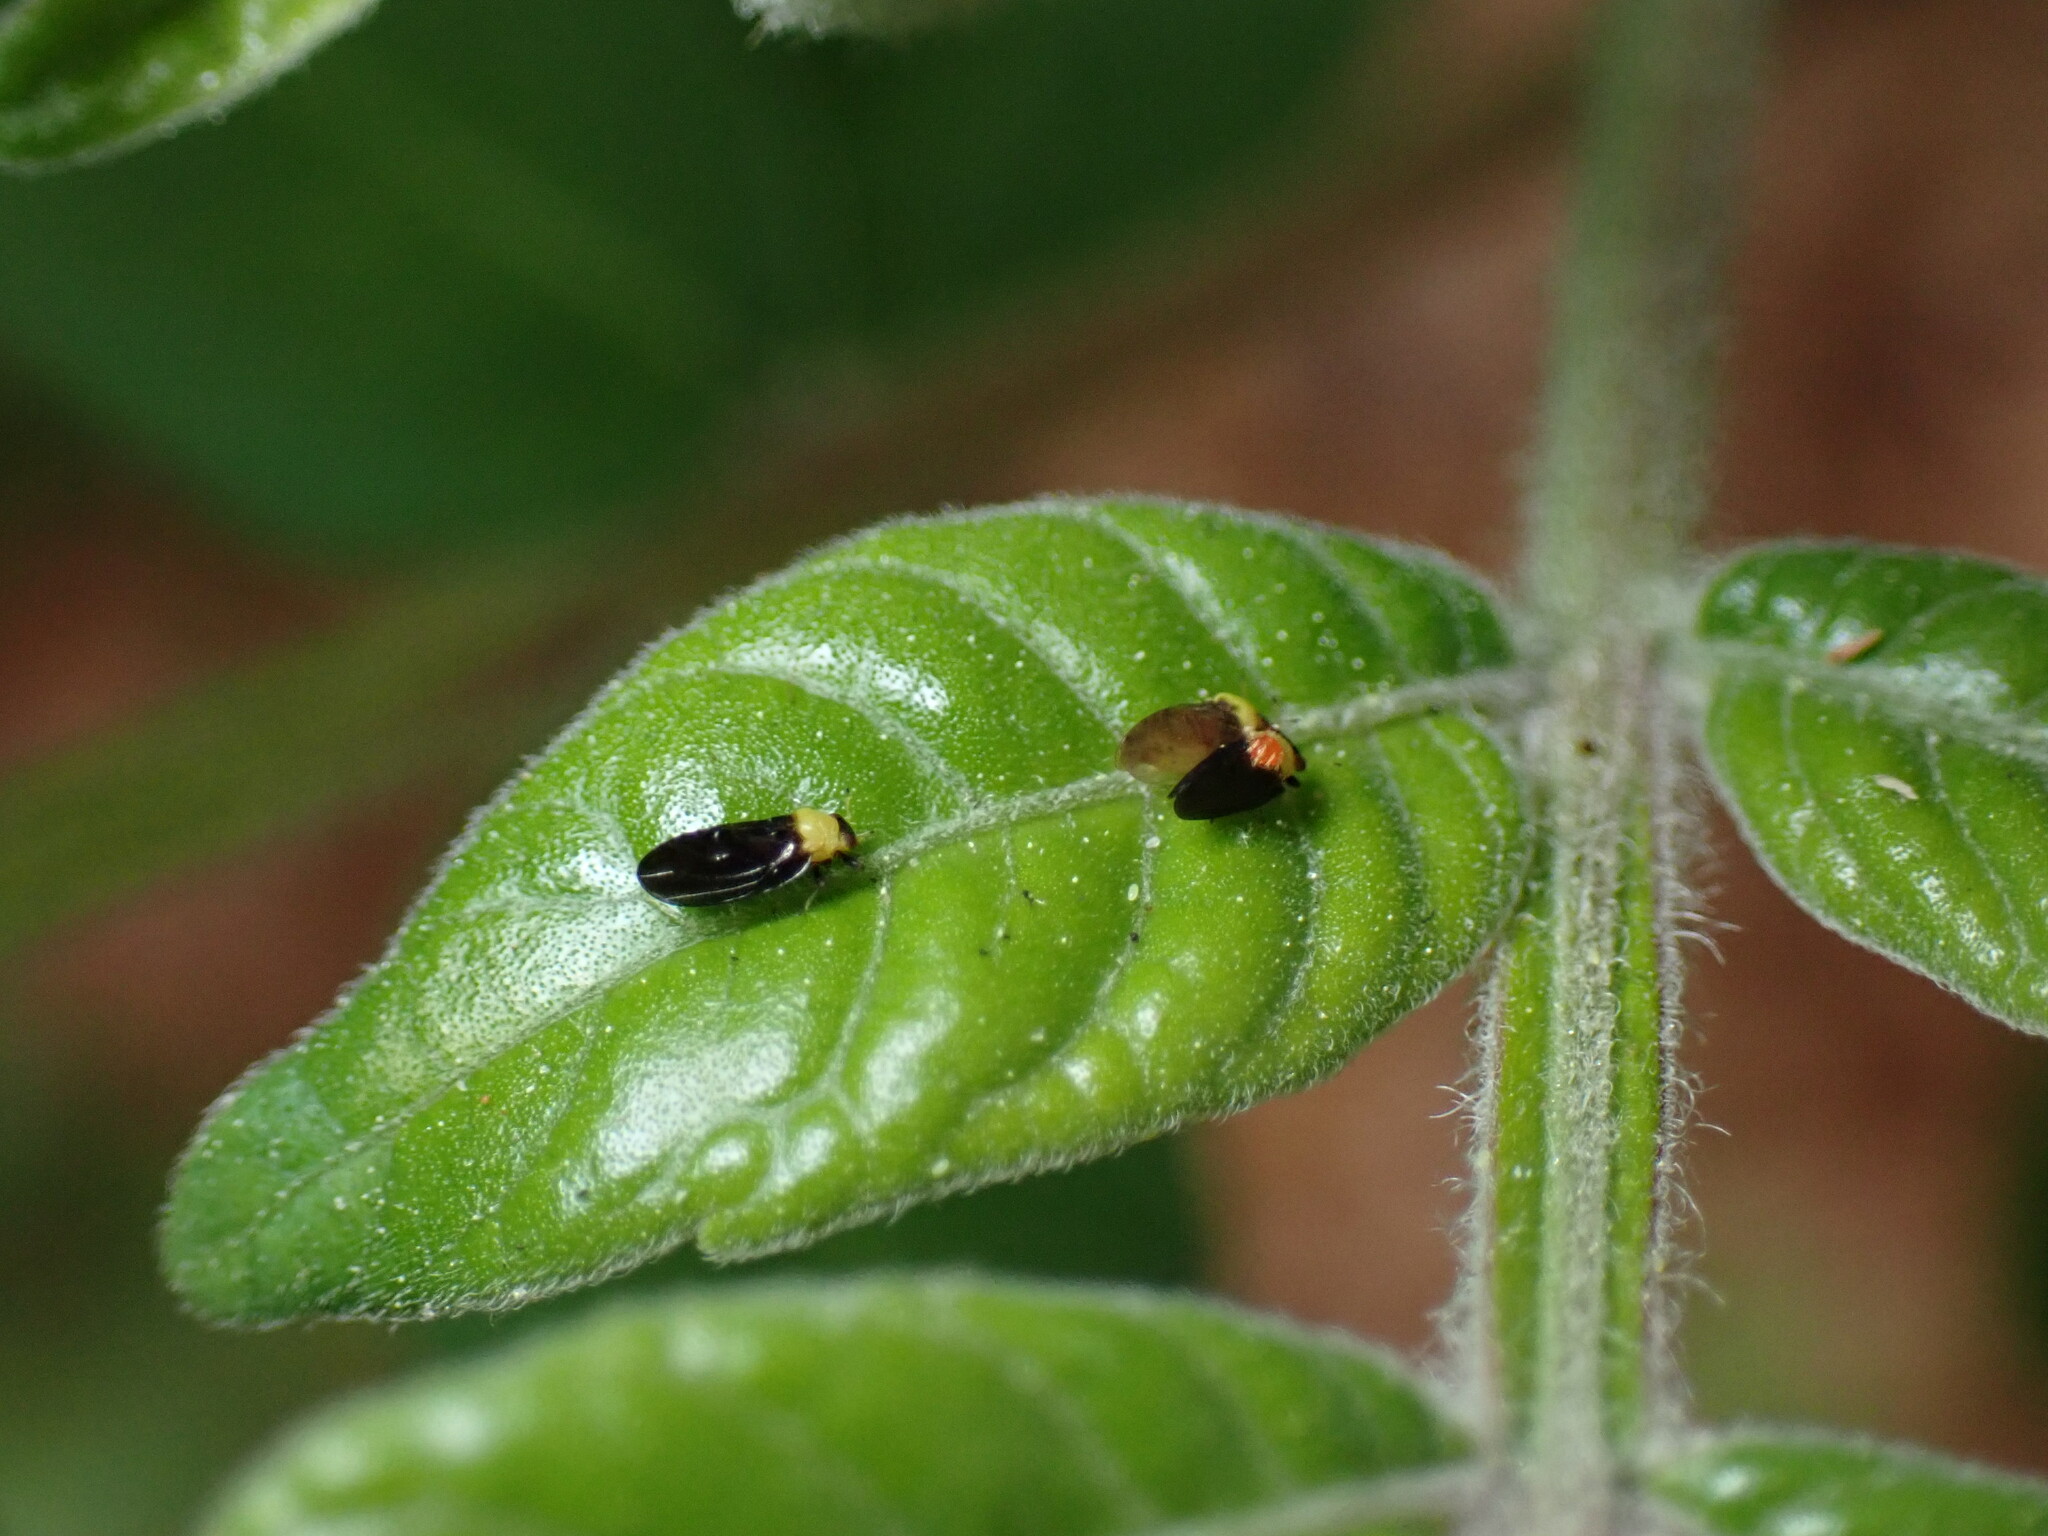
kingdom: Animalia
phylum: Arthropoda
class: Insecta
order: Hemiptera
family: Calophyidae
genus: Calophya
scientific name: Calophya nigripennis
